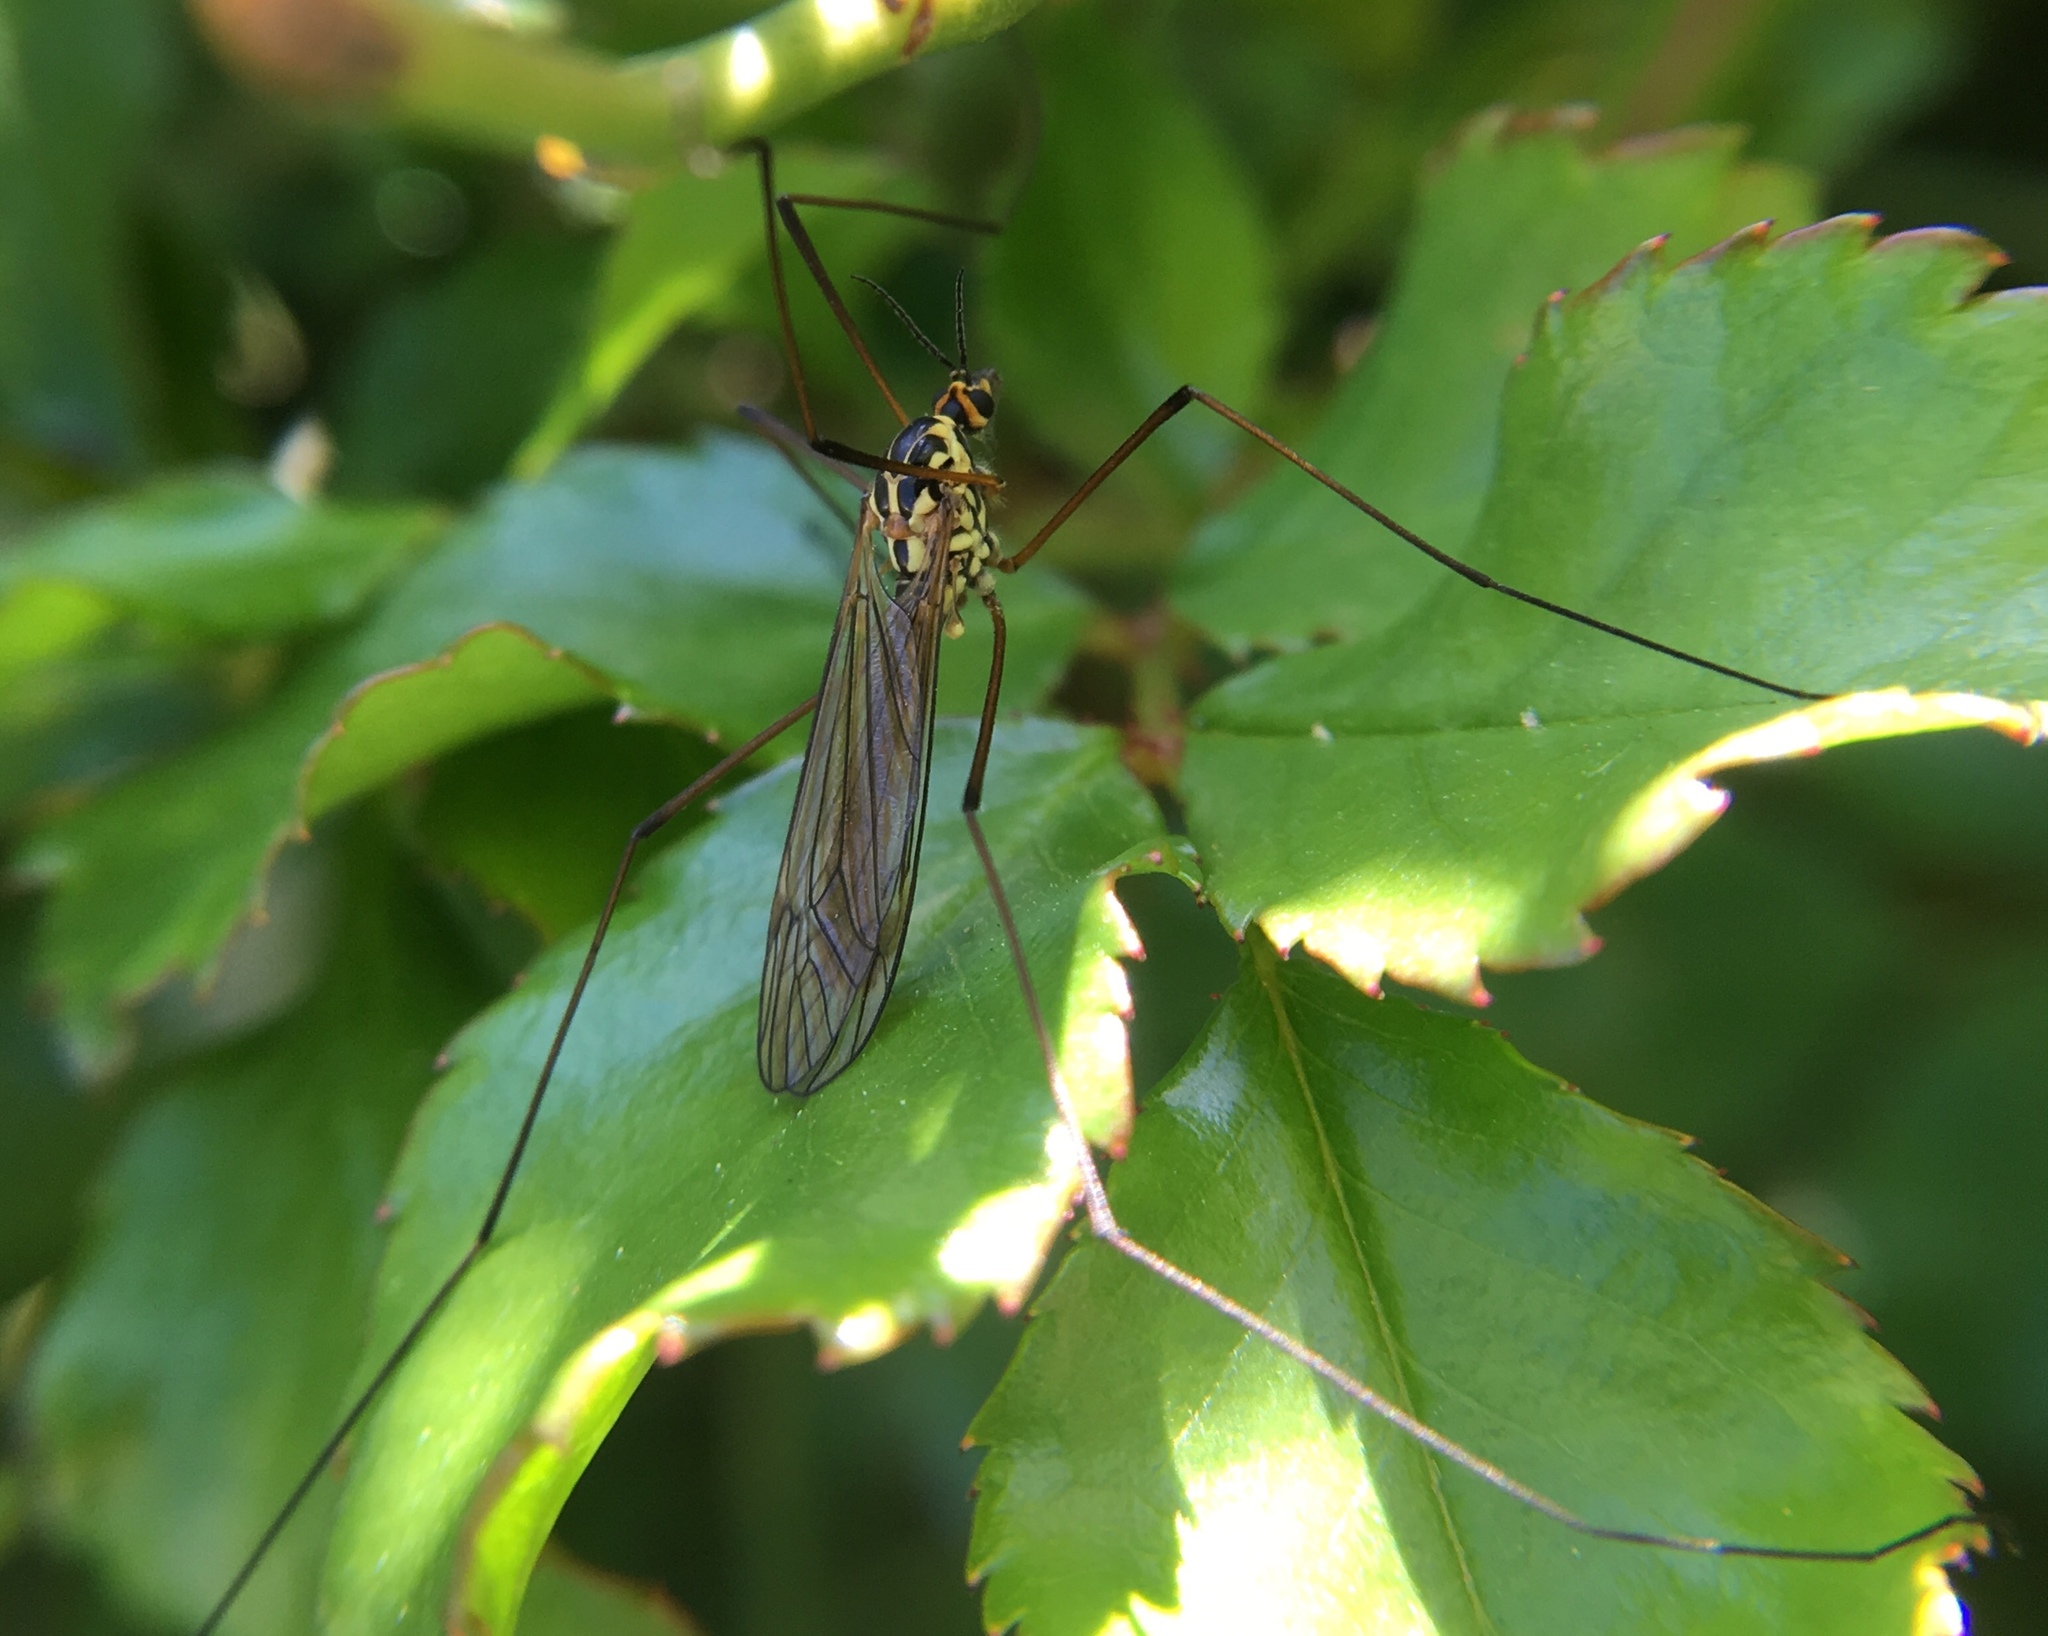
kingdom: Animalia
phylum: Arthropoda
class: Insecta
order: Diptera
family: Tipulidae
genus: Nephrotoma
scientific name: Nephrotoma appendiculata
